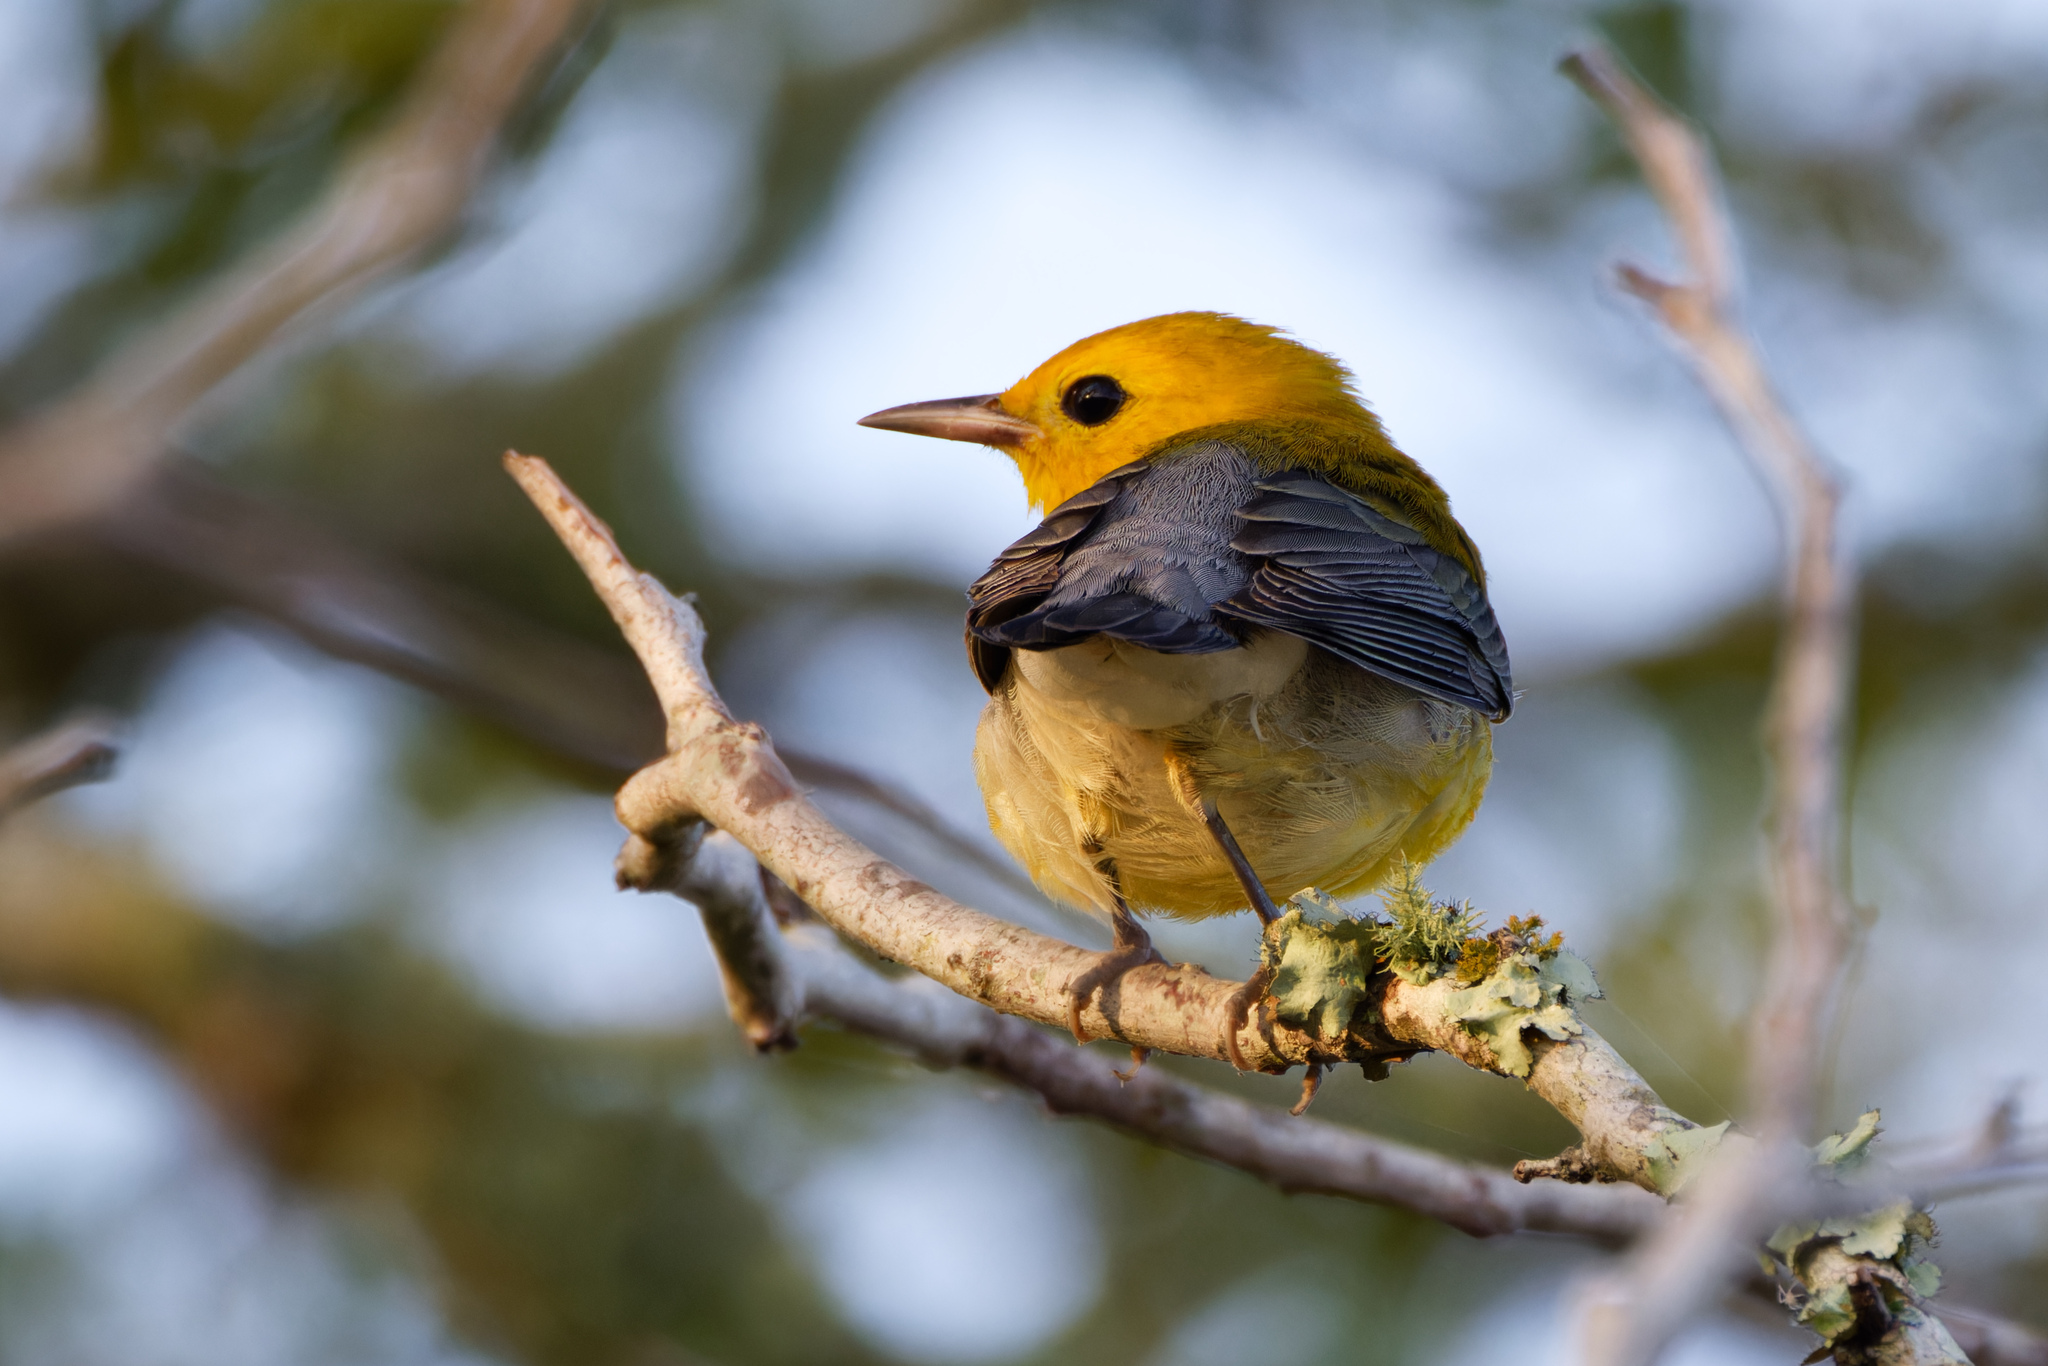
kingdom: Animalia
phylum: Chordata
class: Aves
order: Passeriformes
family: Parulidae
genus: Protonotaria
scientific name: Protonotaria citrea
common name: Prothonotary warbler
